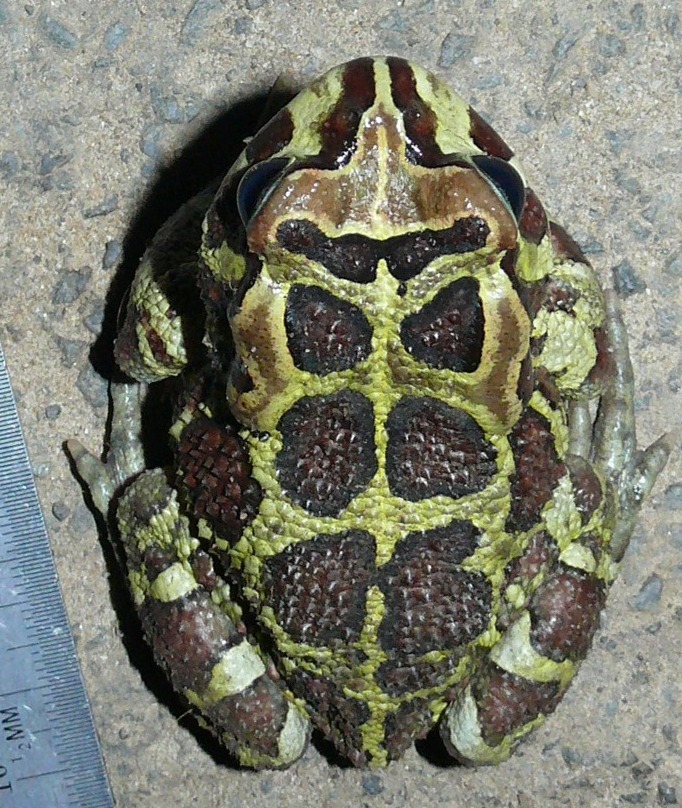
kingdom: Animalia
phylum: Chordata
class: Amphibia
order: Anura
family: Bufonidae
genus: Sclerophrys
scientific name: Sclerophrys pantherina
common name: Panther toad
